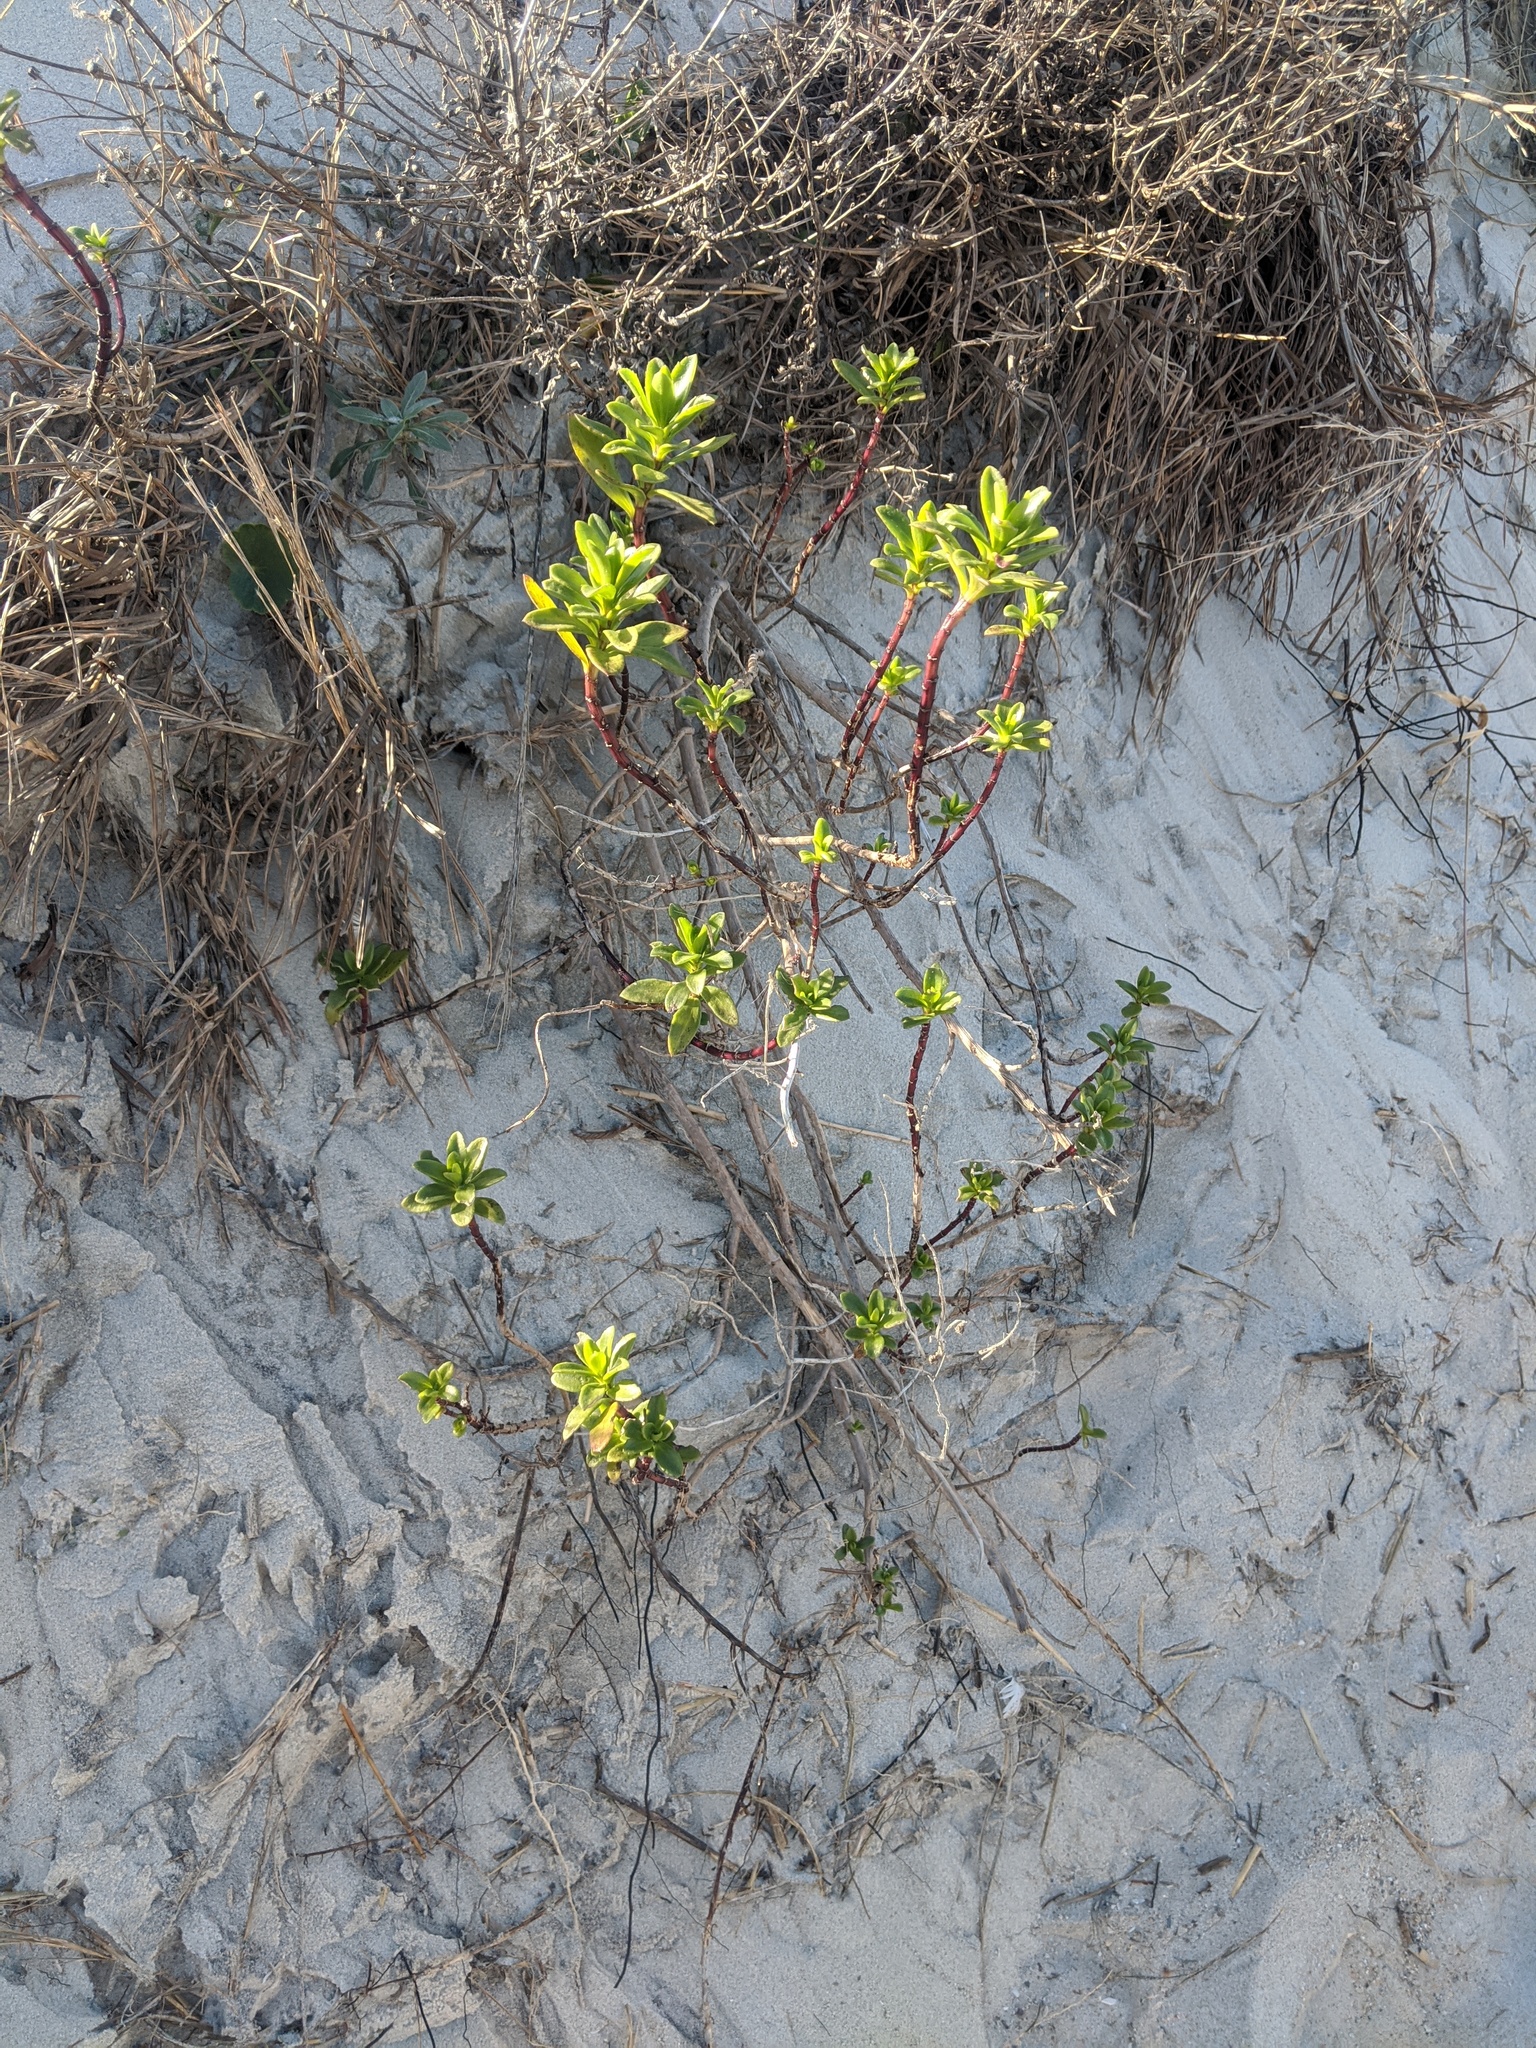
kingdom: Plantae
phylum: Tracheophyta
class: Magnoliopsida
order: Asterales
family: Asteraceae
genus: Iva
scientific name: Iva imbricata
